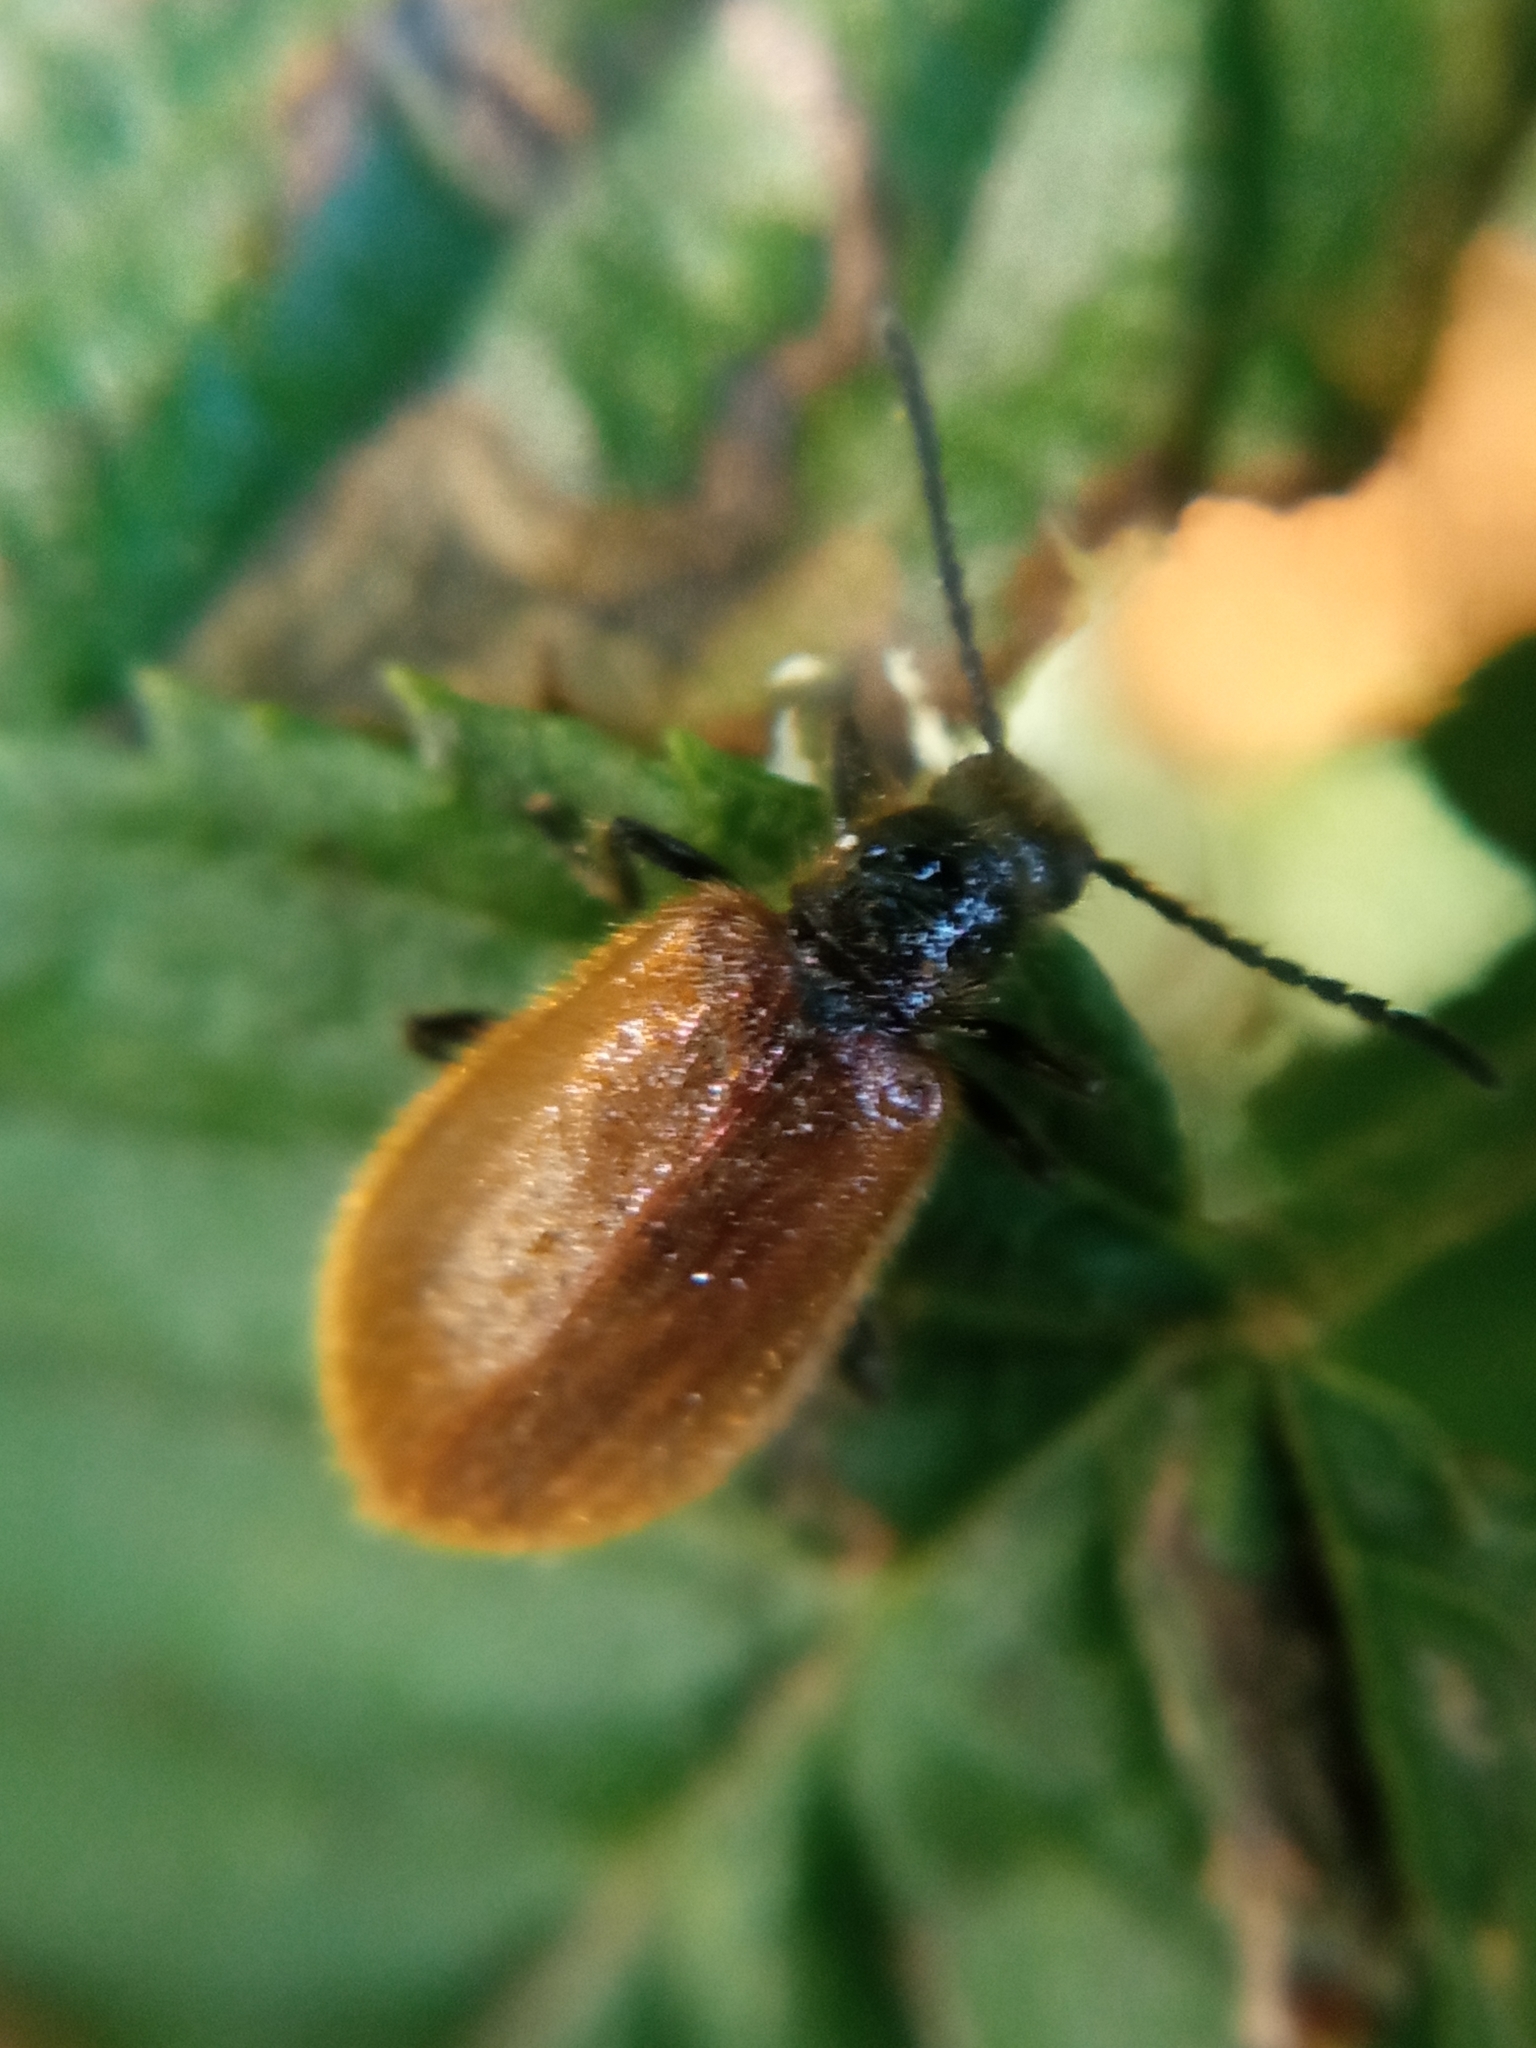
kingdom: Animalia
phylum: Arthropoda
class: Insecta
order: Coleoptera
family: Tenebrionidae
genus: Lagria
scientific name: Lagria hirta
